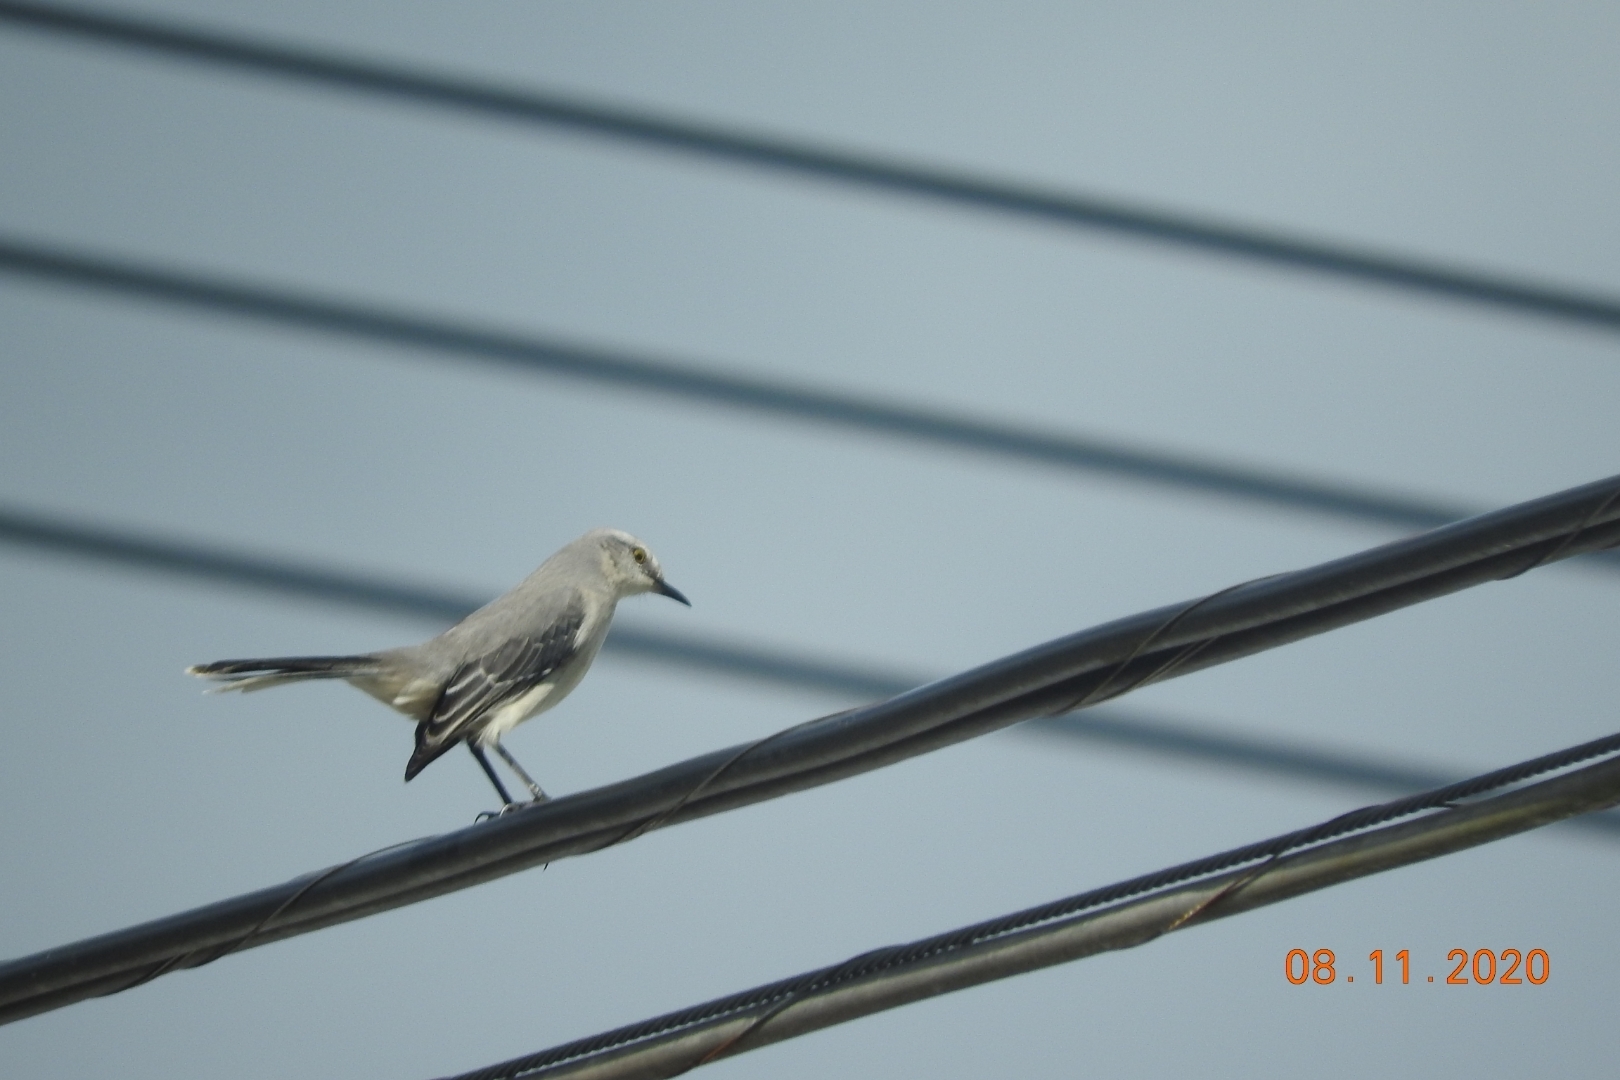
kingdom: Animalia
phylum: Chordata
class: Aves
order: Passeriformes
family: Mimidae
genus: Mimus
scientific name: Mimus gilvus
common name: Tropical mockingbird
